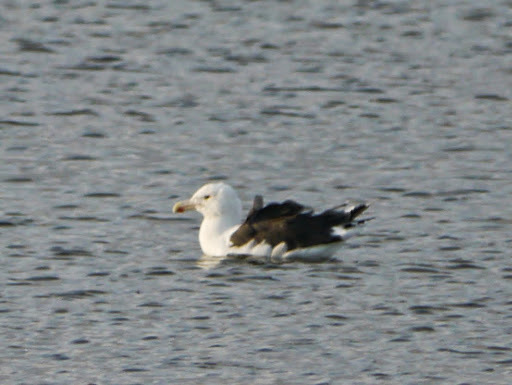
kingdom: Animalia
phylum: Chordata
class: Aves
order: Charadriiformes
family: Laridae
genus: Larus
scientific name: Larus marinus
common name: Great black-backed gull
